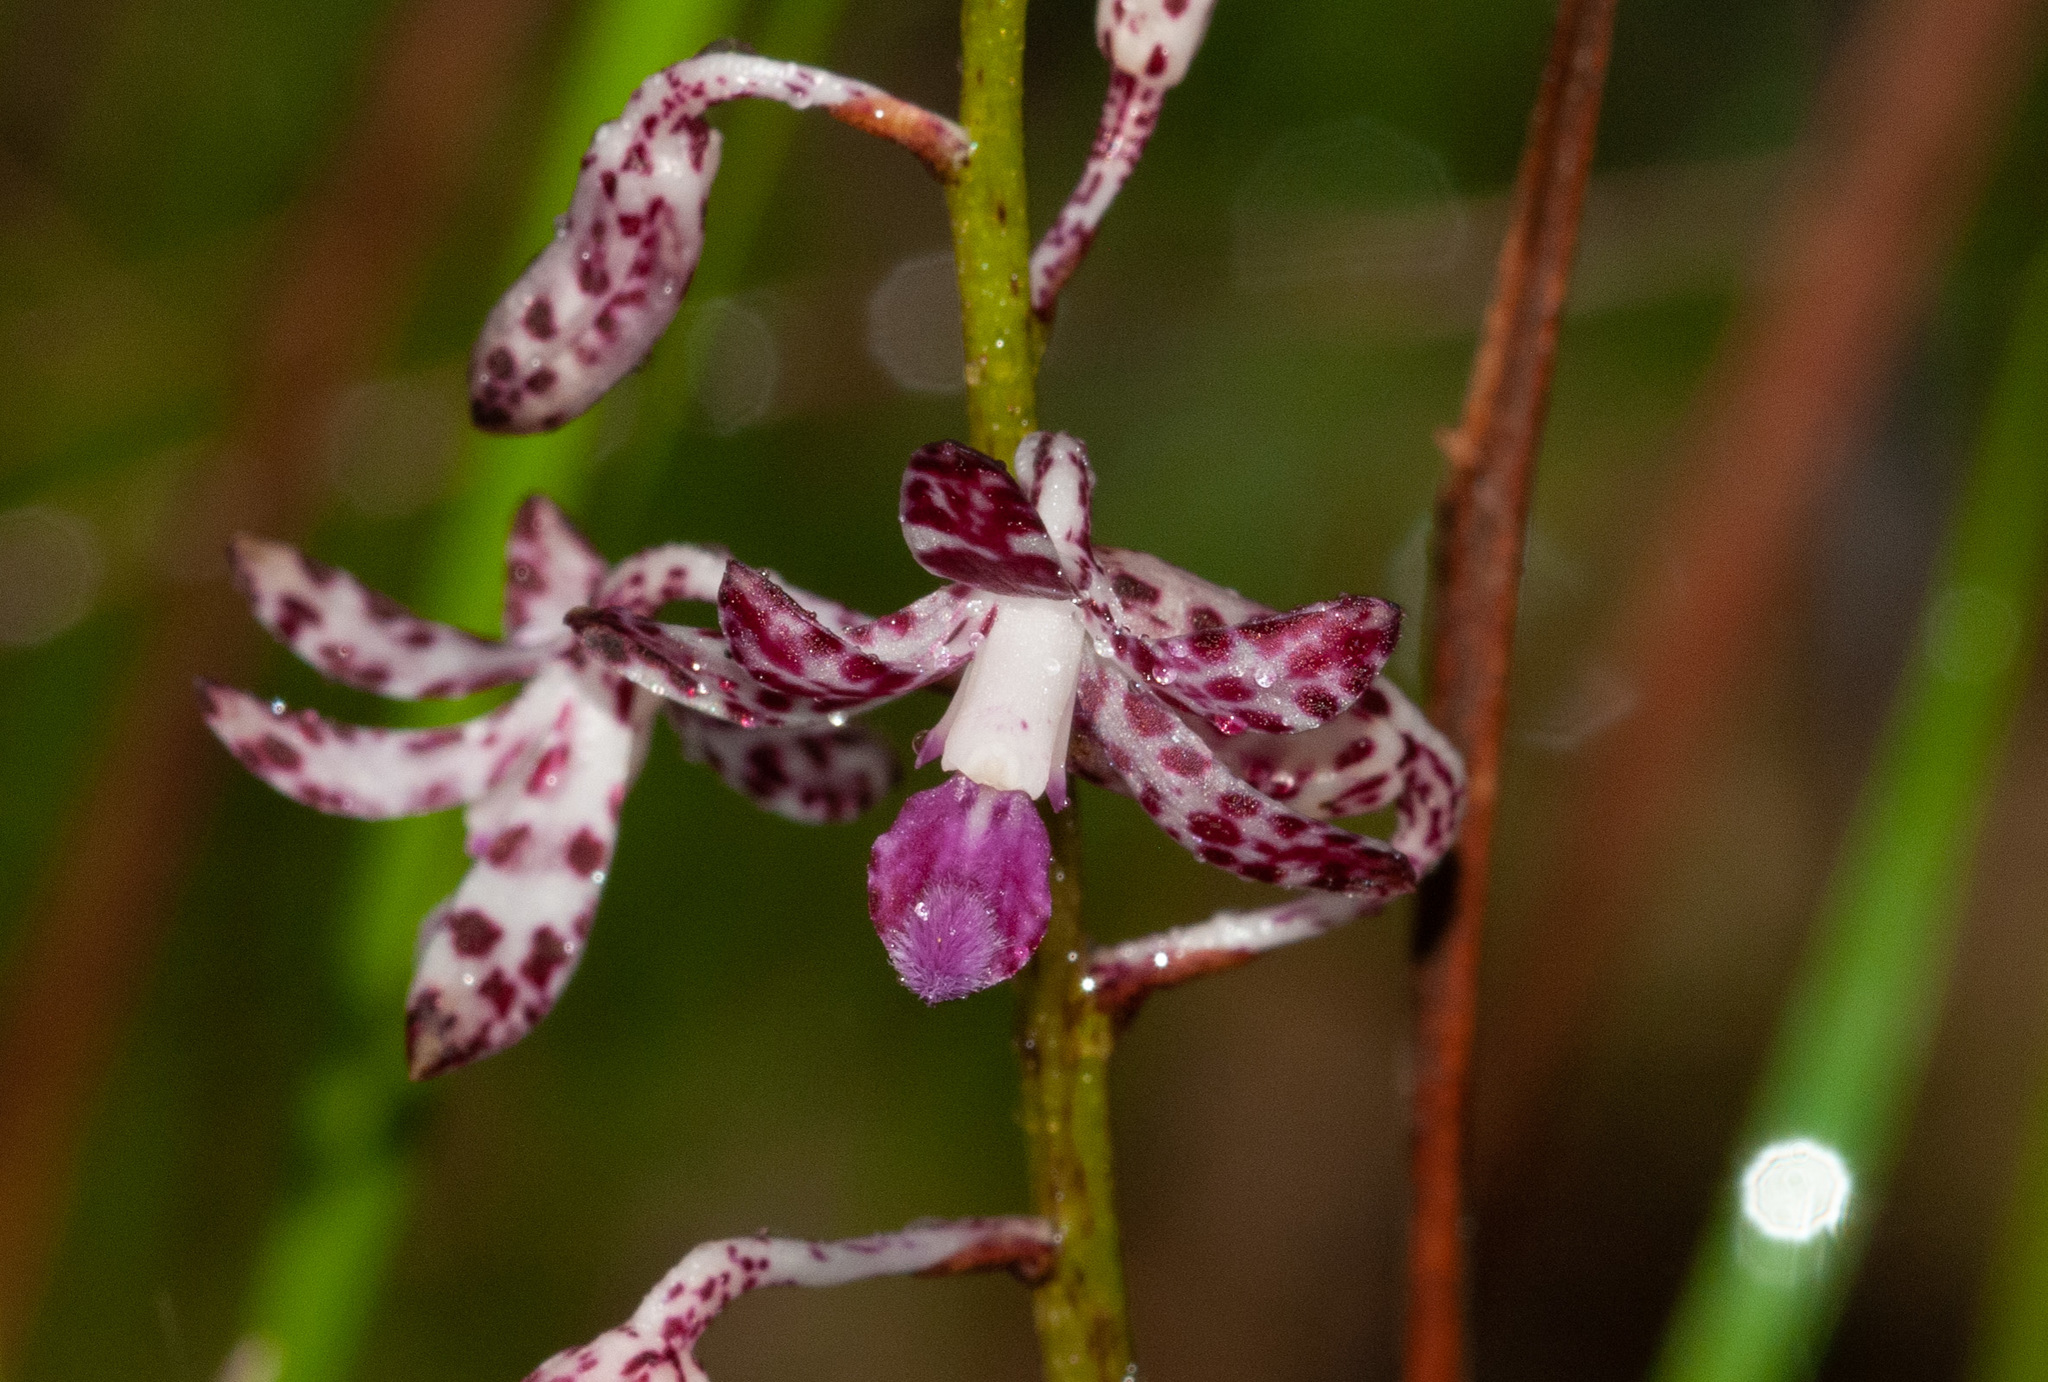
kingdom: Plantae
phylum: Tracheophyta
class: Liliopsida
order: Asparagales
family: Orchidaceae
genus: Dipodium
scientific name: Dipodium variegatum
